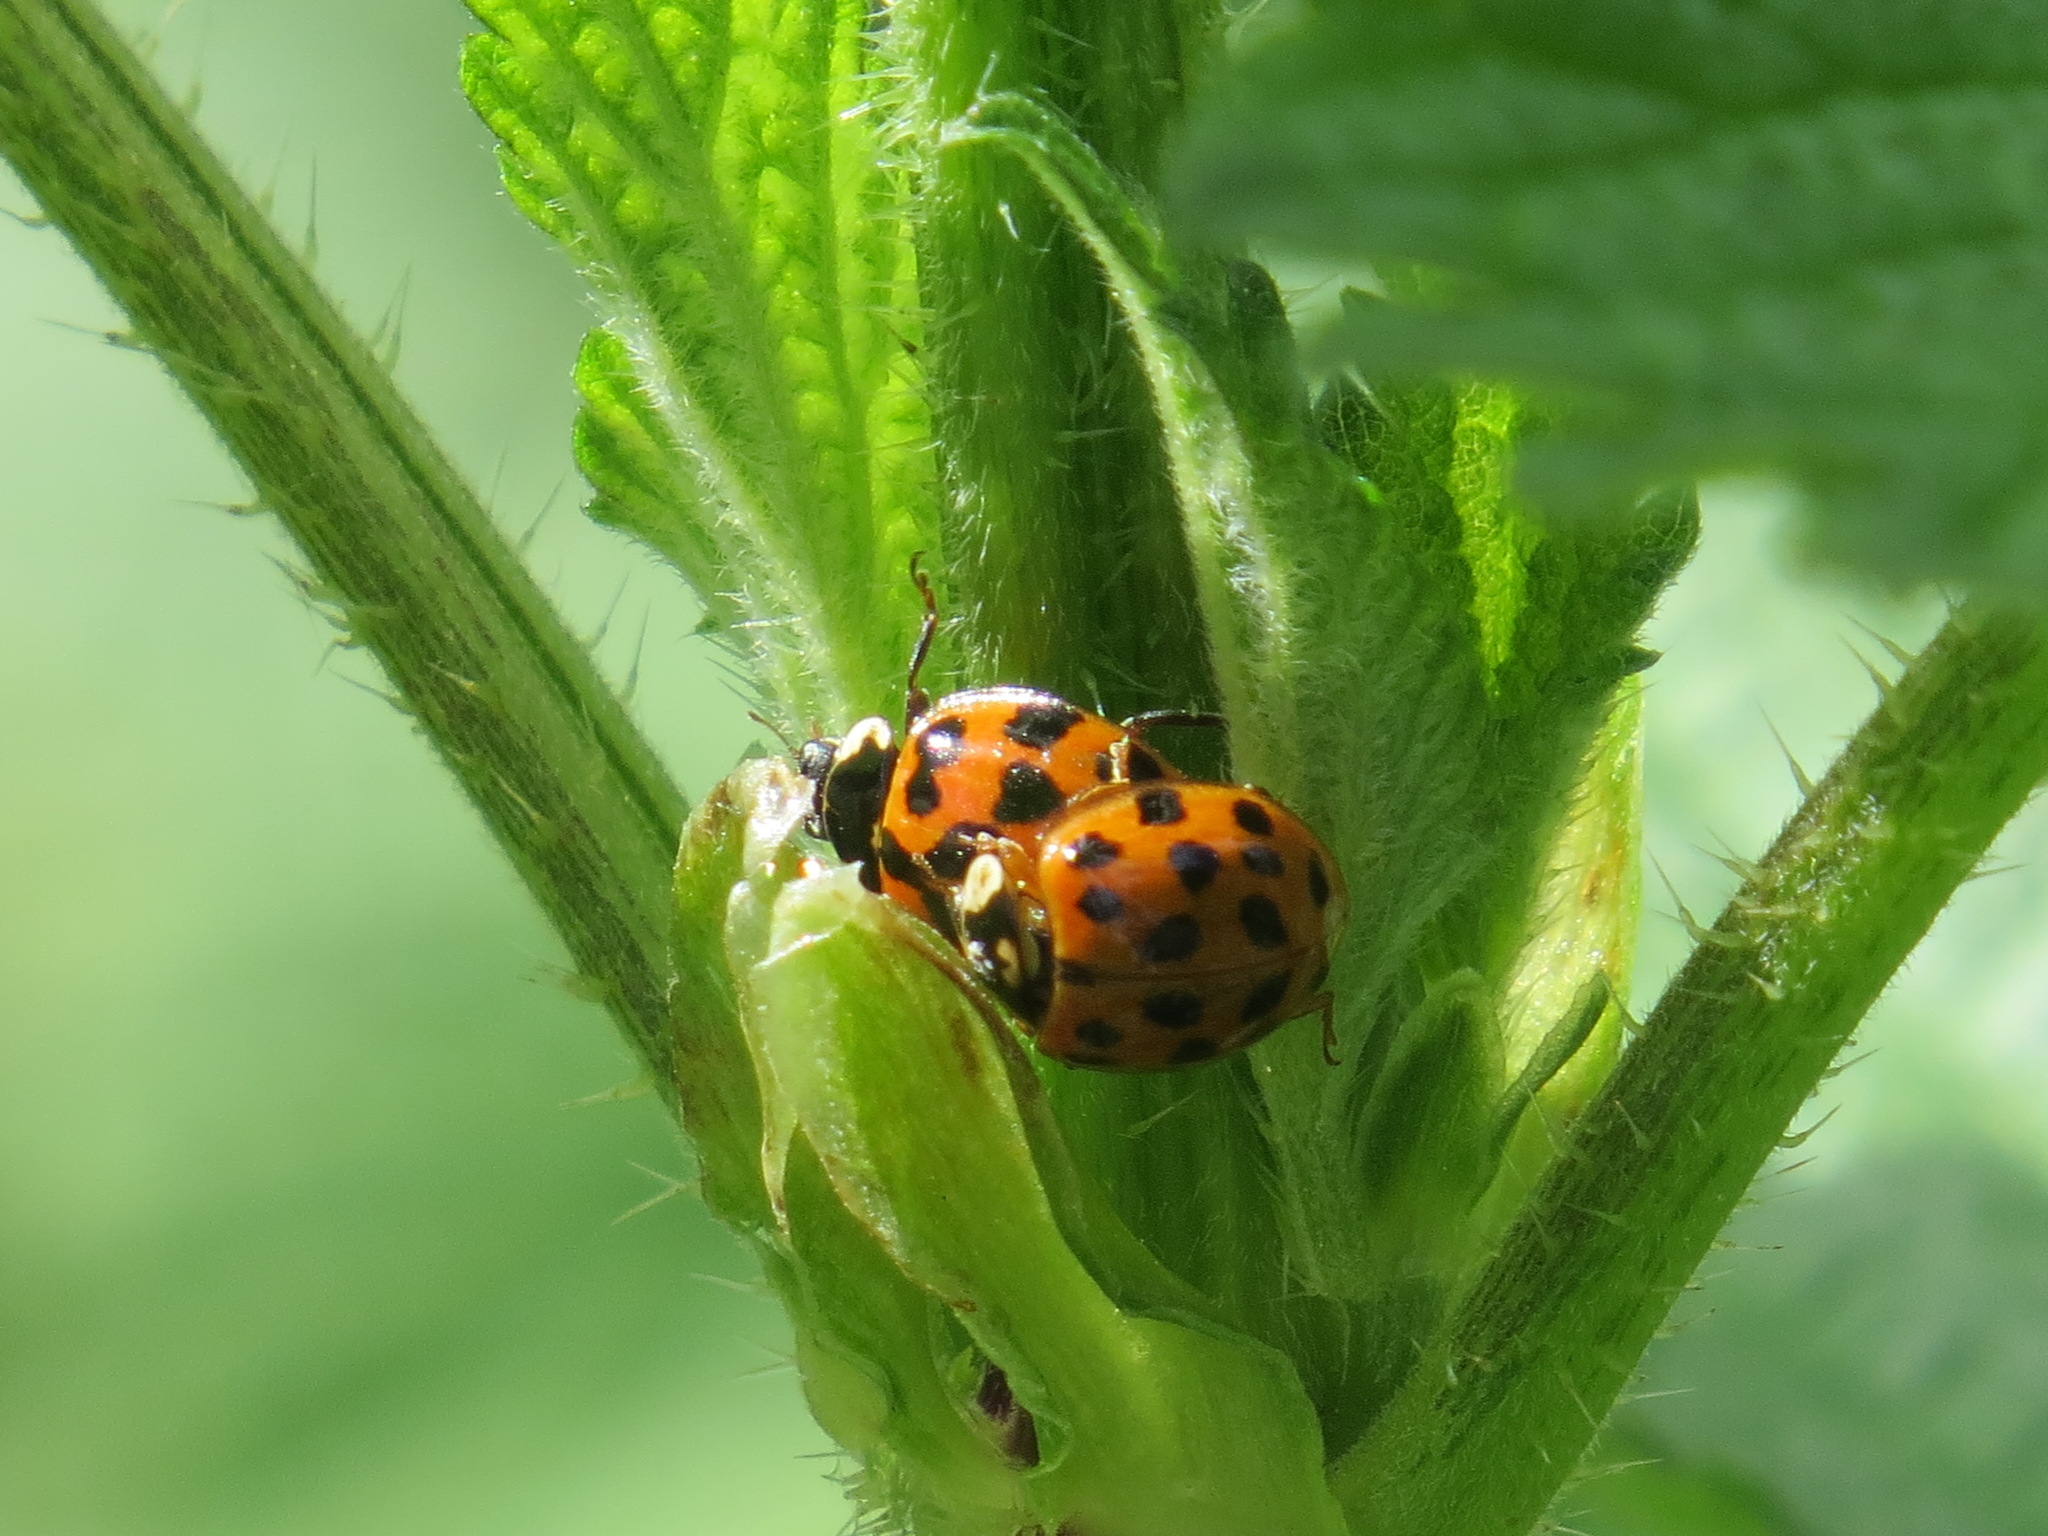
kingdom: Animalia
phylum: Arthropoda
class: Insecta
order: Coleoptera
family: Coccinellidae
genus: Harmonia
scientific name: Harmonia axyridis
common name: Harlequin ladybird
